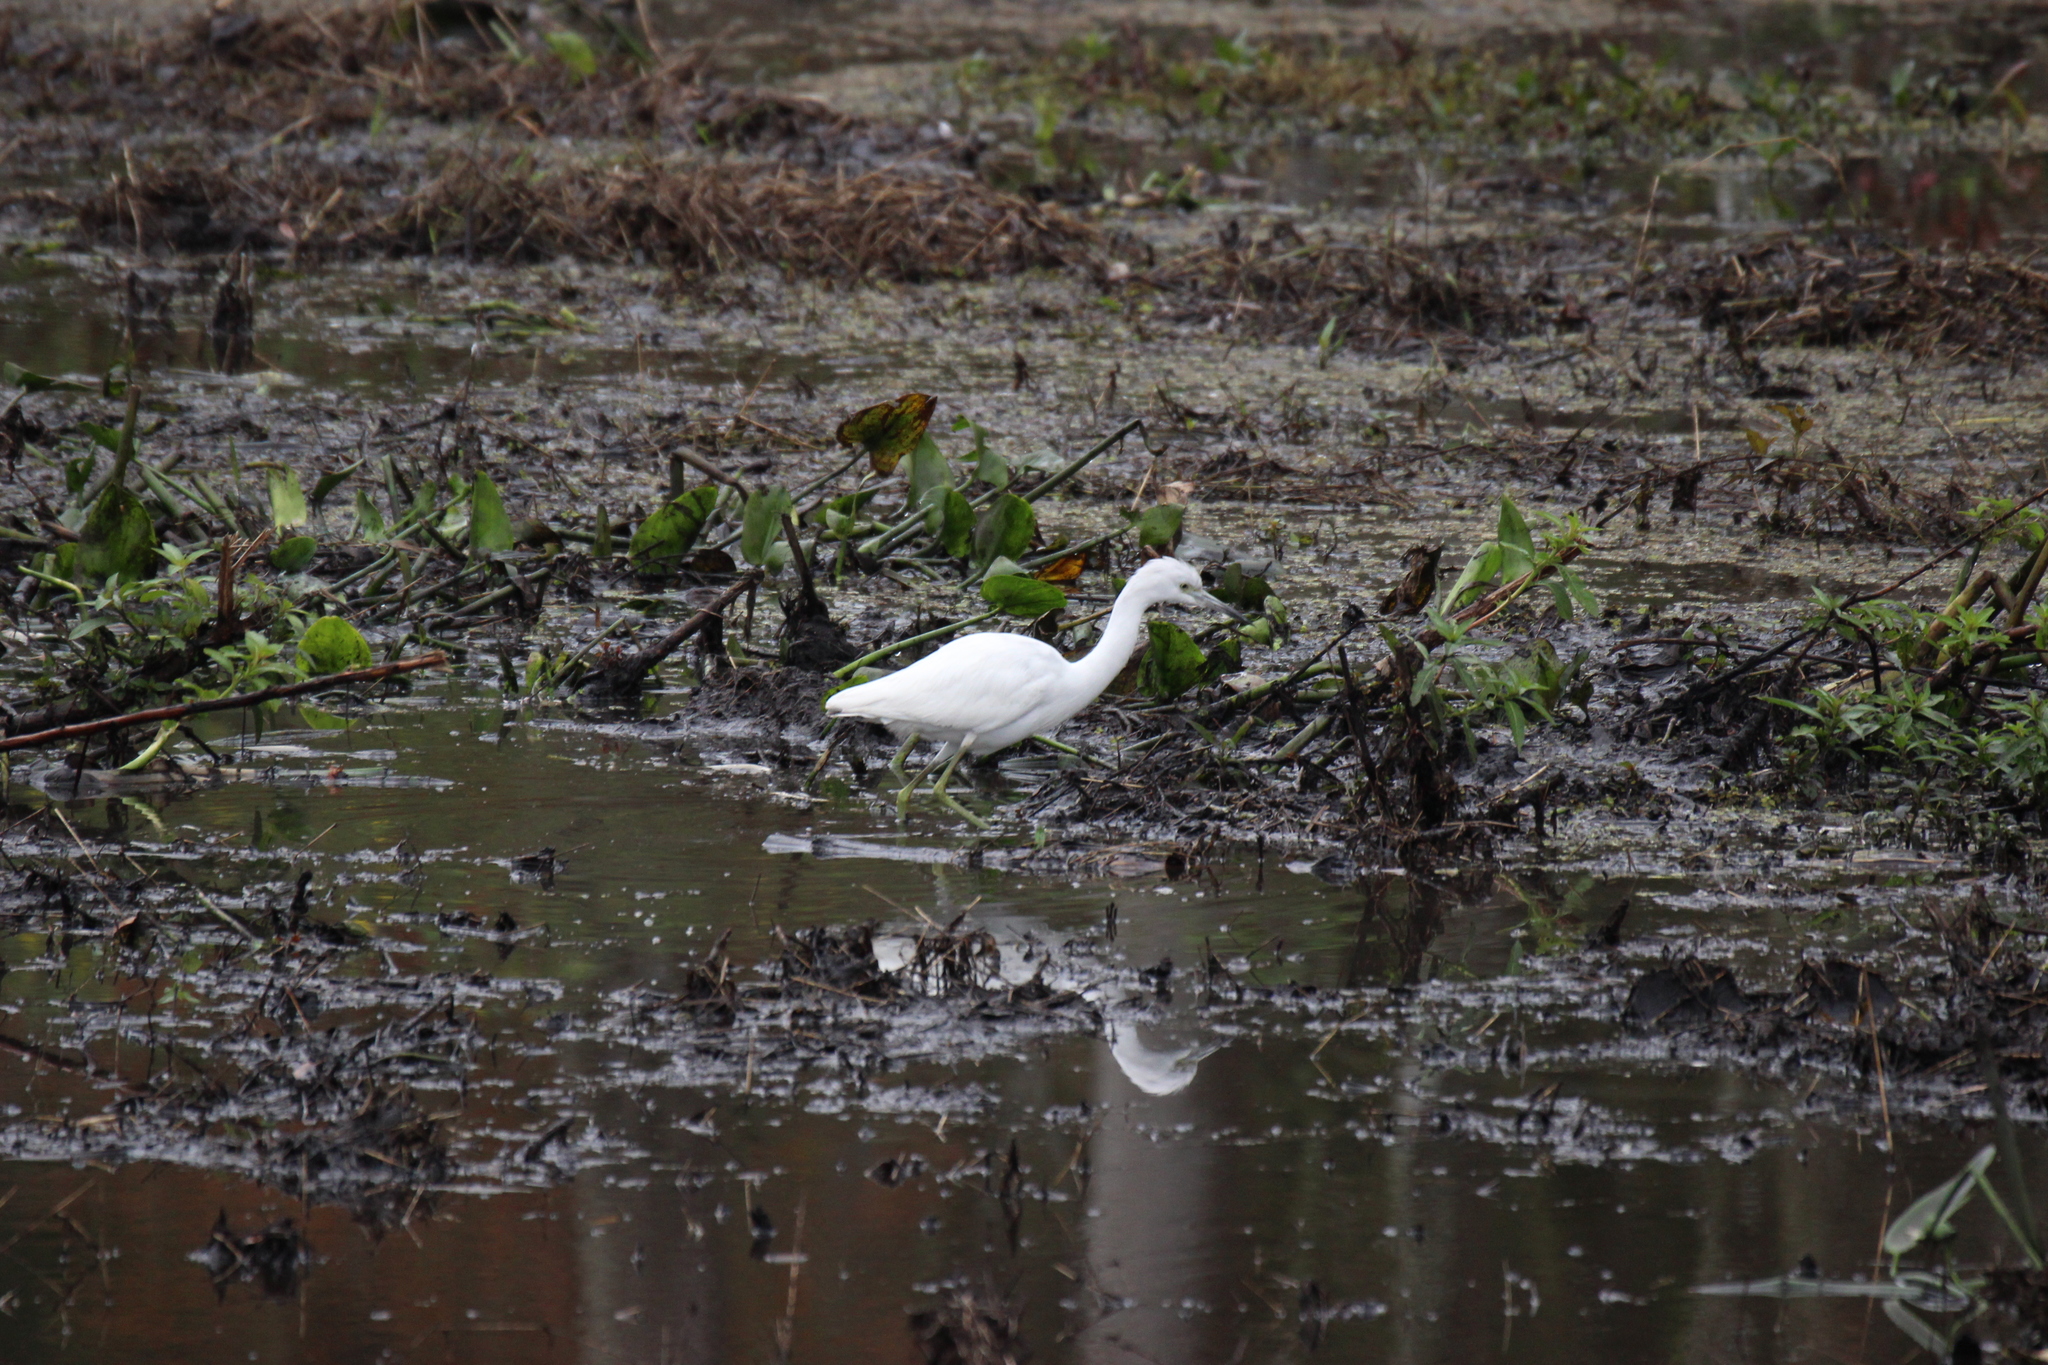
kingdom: Animalia
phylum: Chordata
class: Aves
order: Pelecaniformes
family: Ardeidae
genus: Egretta
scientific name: Egretta caerulea
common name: Little blue heron
